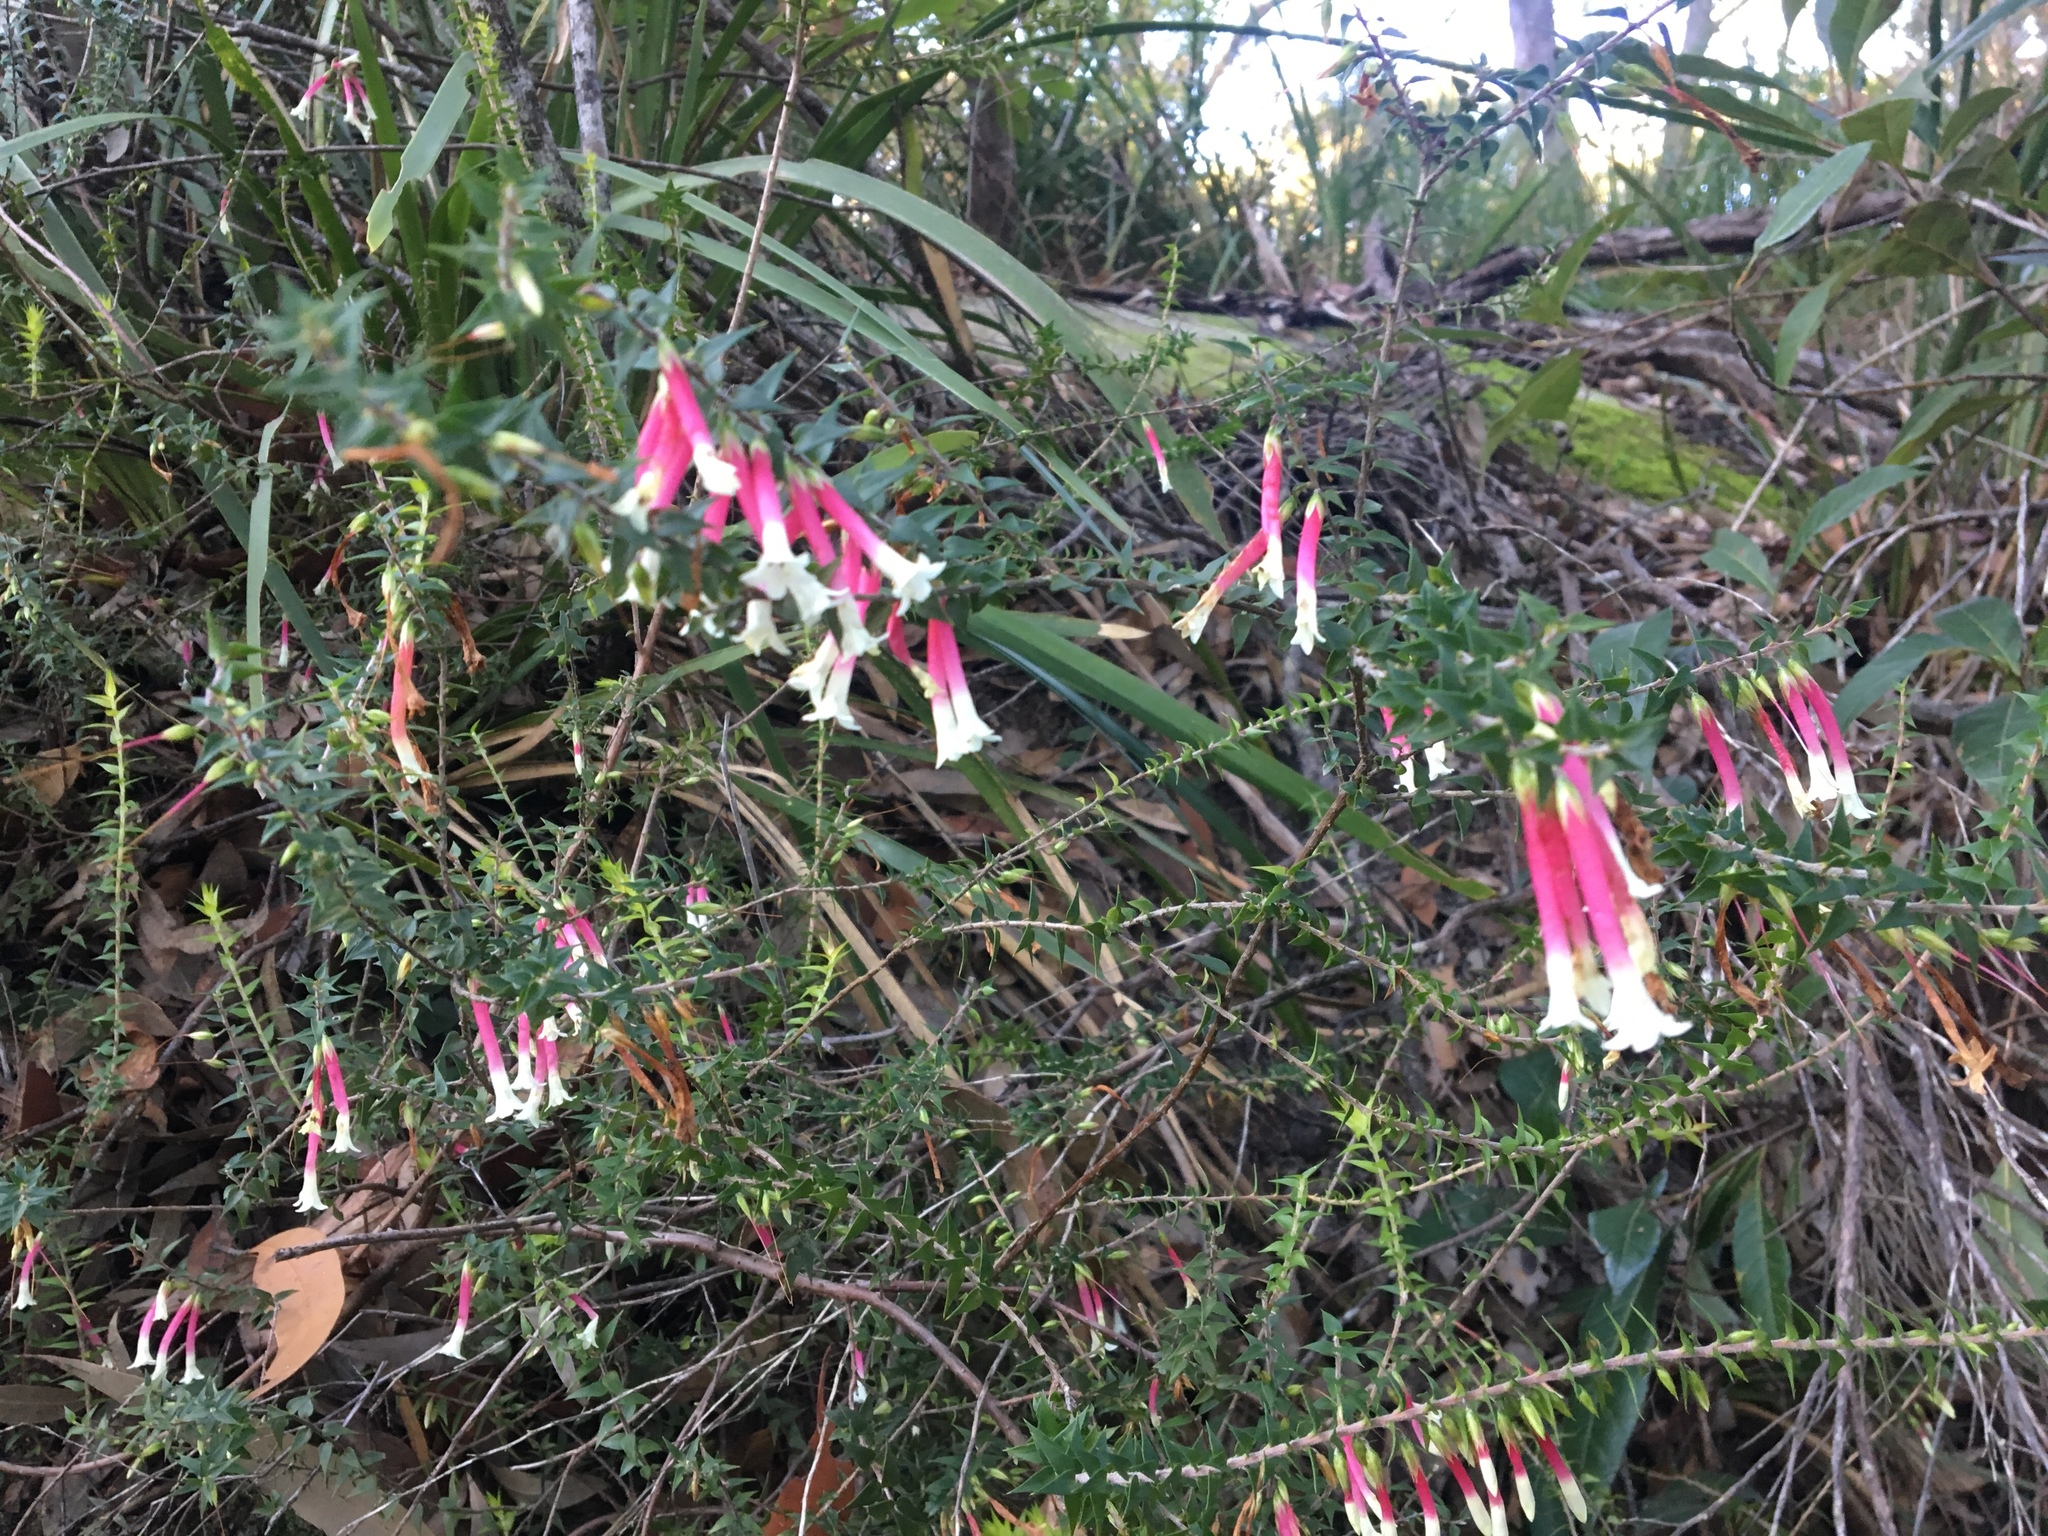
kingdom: Plantae
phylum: Tracheophyta
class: Magnoliopsida
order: Ericales
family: Ericaceae
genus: Epacris
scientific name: Epacris longiflora
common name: Fuchsia-heath
